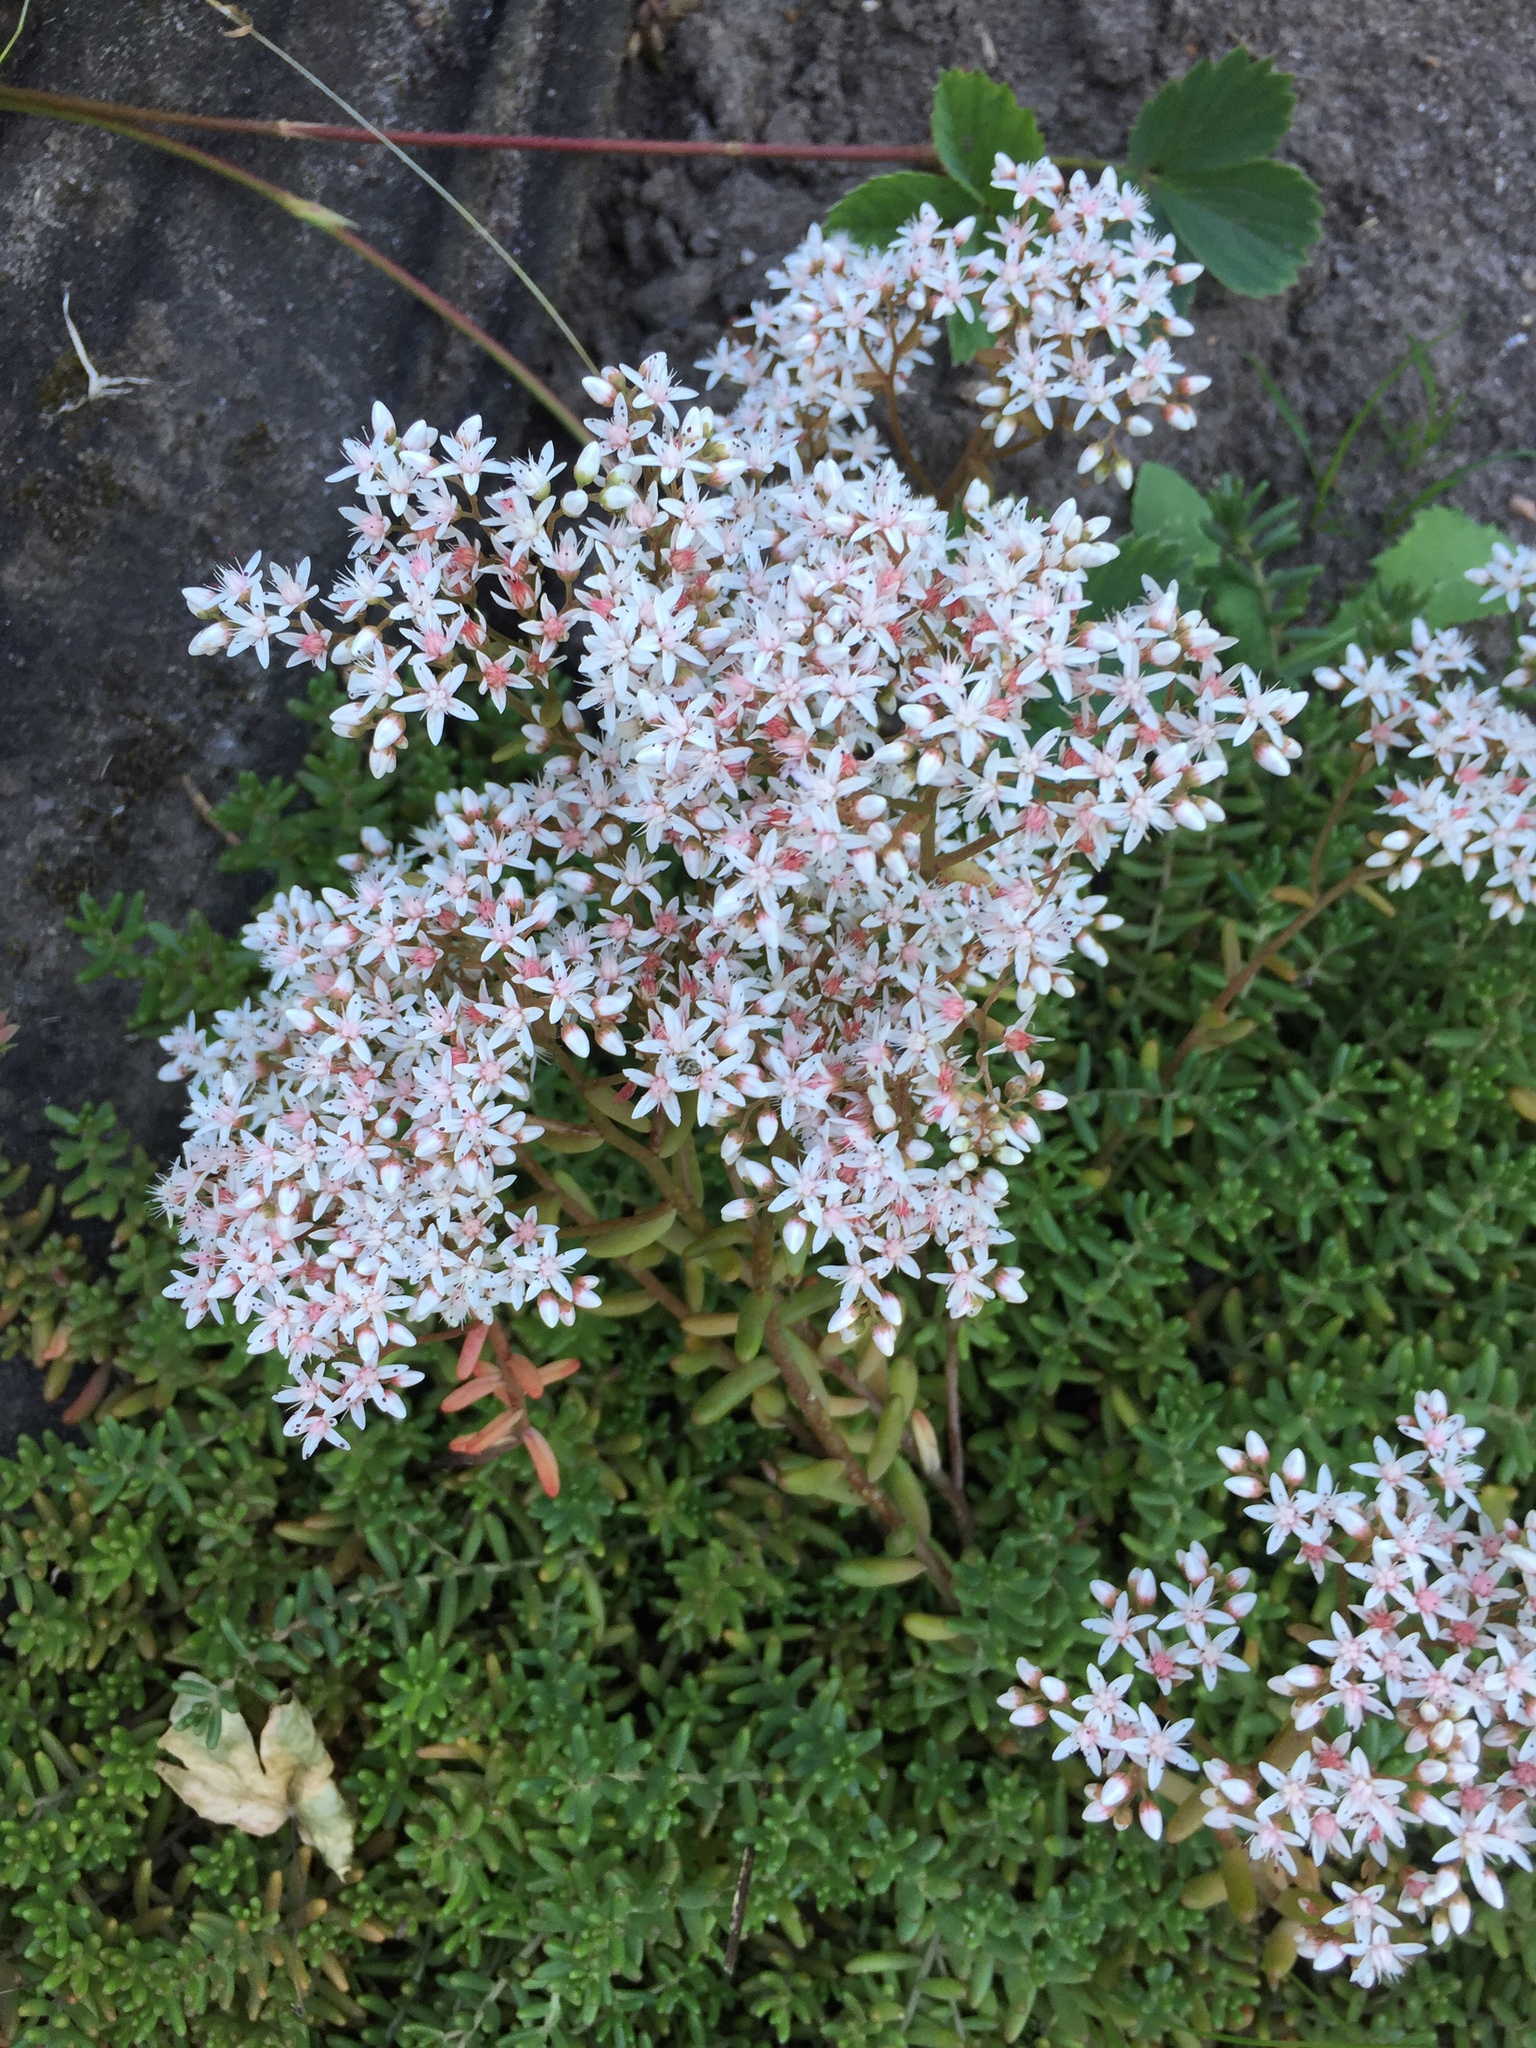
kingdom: Plantae
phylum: Tracheophyta
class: Magnoliopsida
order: Saxifragales
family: Crassulaceae
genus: Sedum
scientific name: Sedum album
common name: White stonecrop
